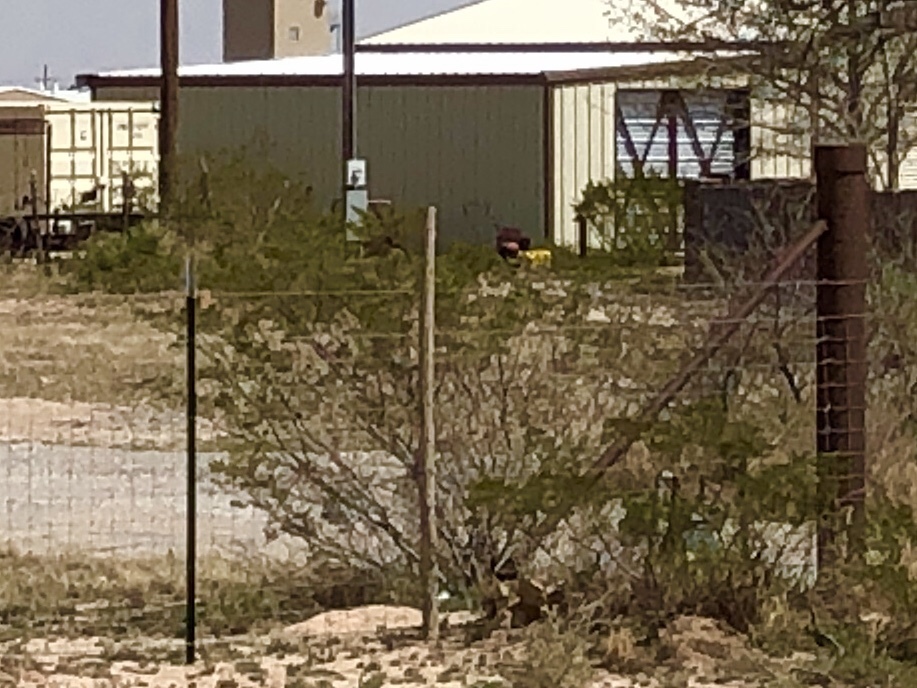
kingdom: Plantae
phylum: Tracheophyta
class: Magnoliopsida
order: Zygophyllales
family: Zygophyllaceae
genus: Larrea
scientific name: Larrea tridentata
